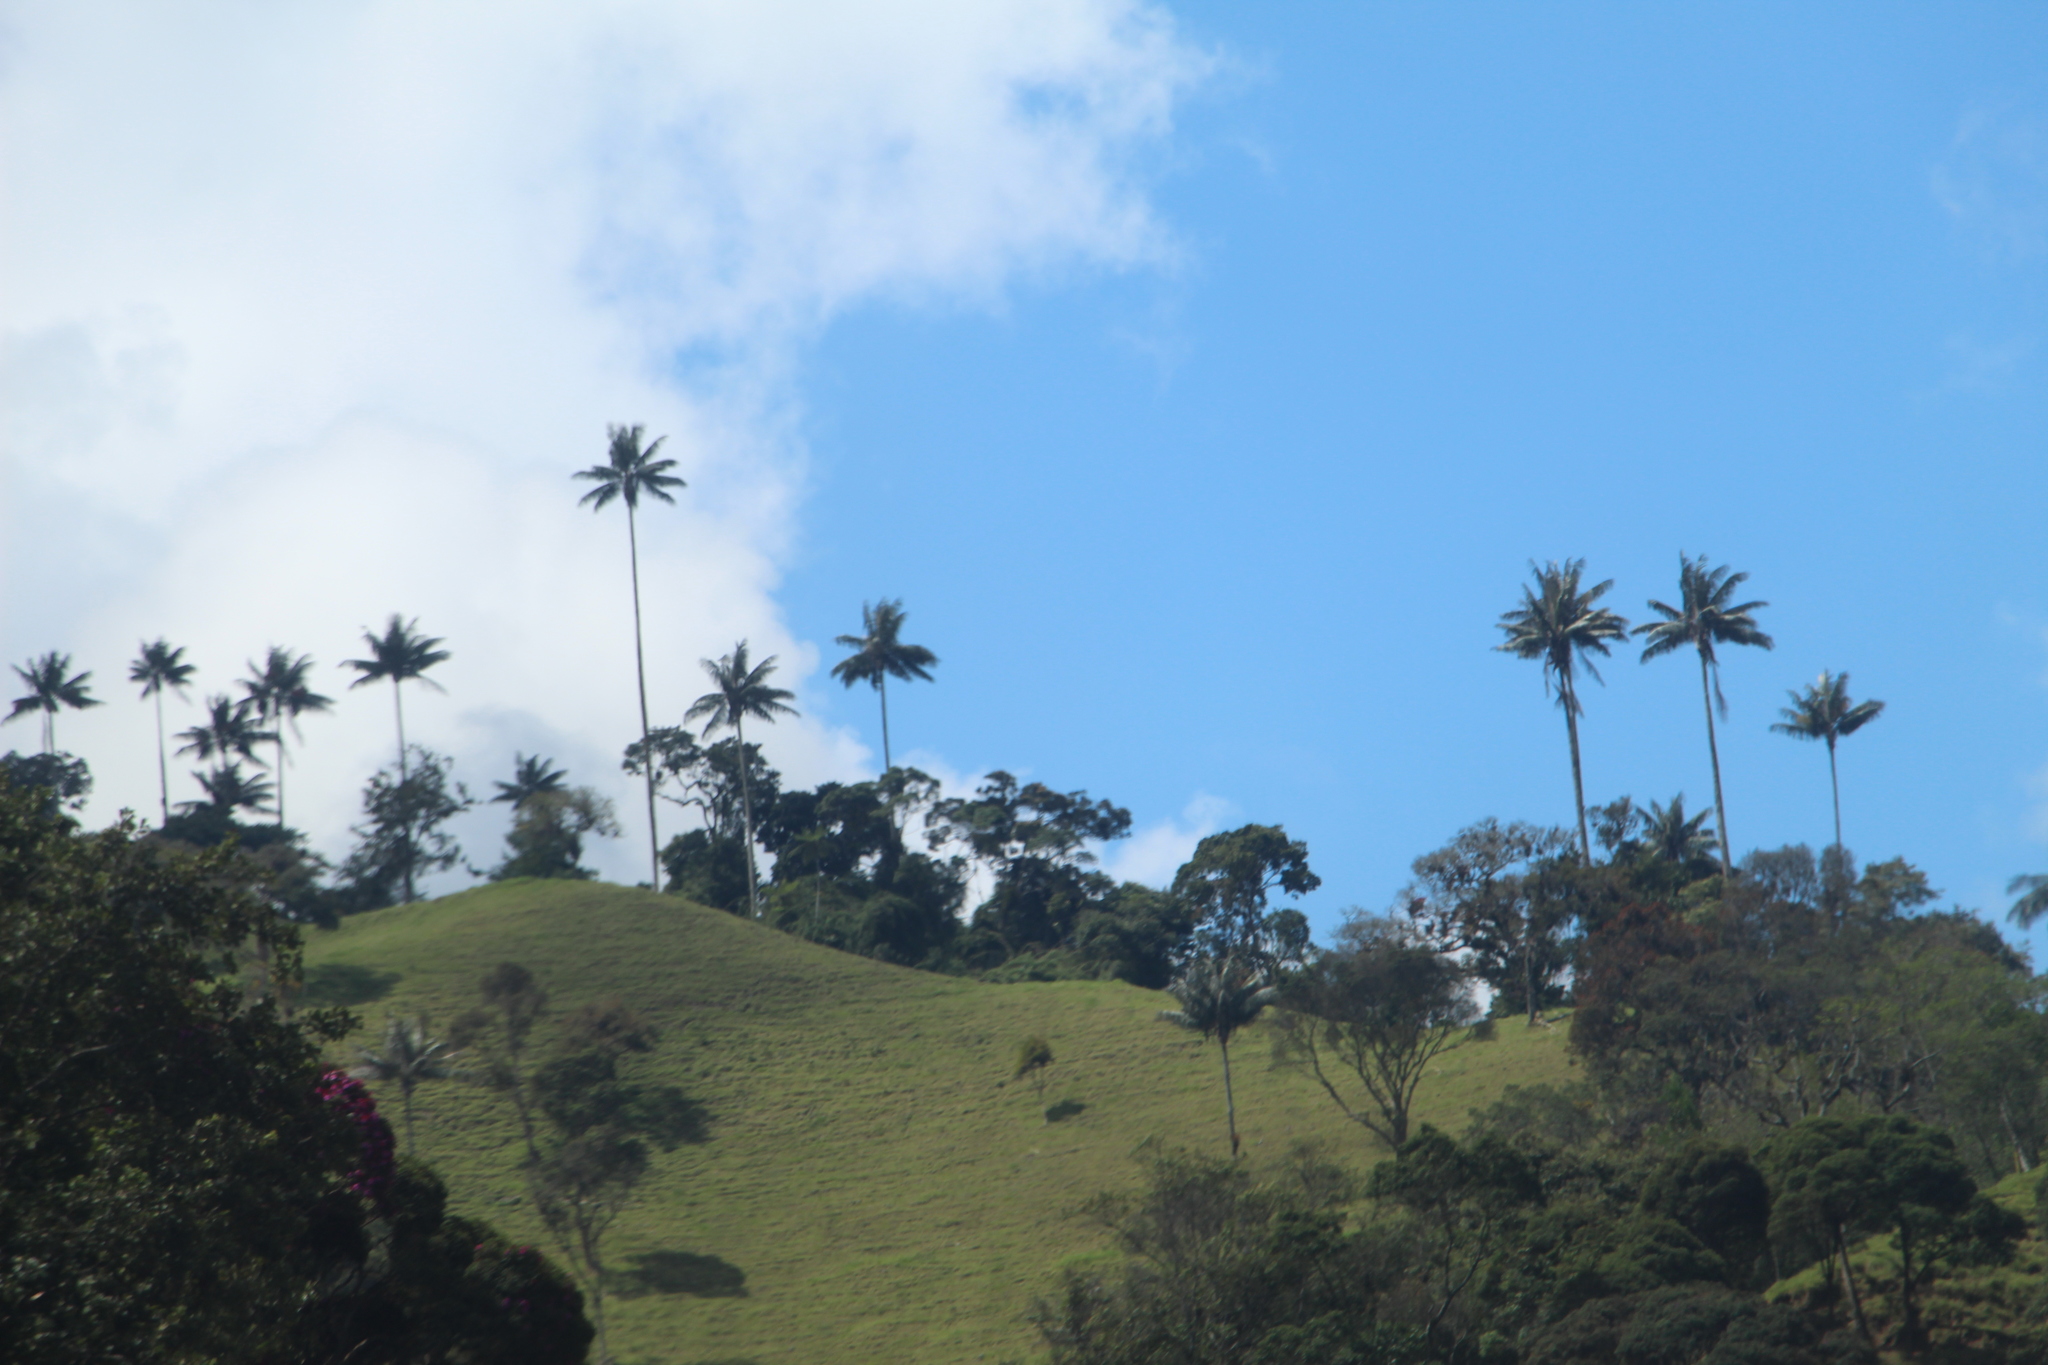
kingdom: Plantae
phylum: Tracheophyta
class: Liliopsida
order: Arecales
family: Arecaceae
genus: Ceroxylon
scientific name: Ceroxylon quindiuense
